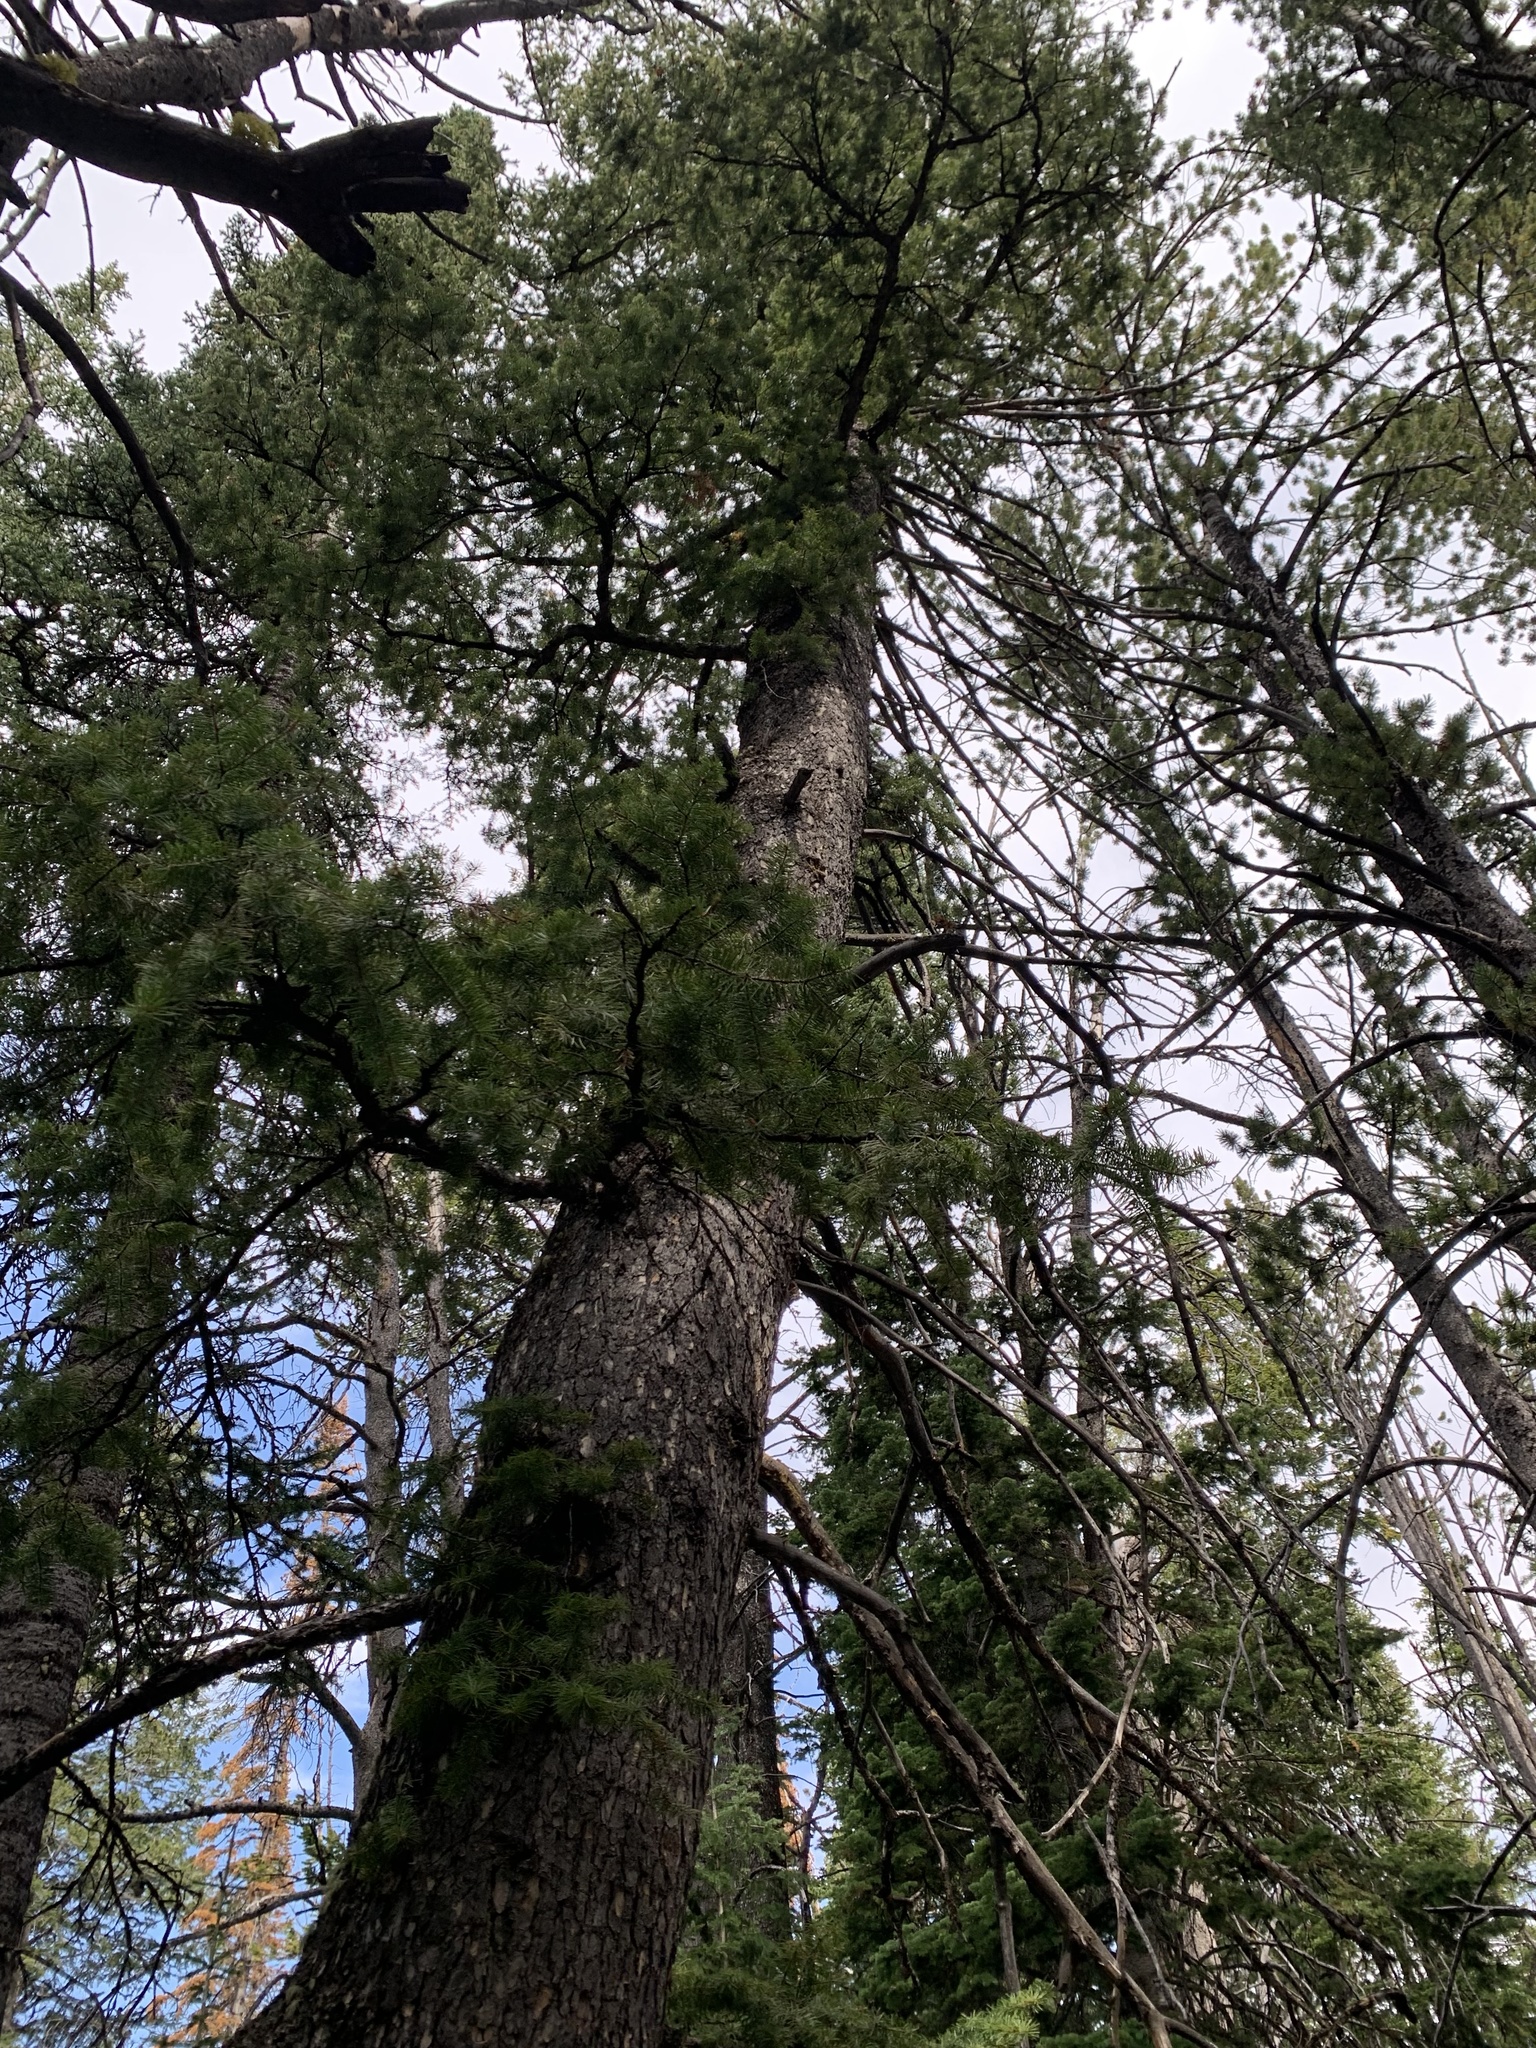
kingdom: Plantae
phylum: Tracheophyta
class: Pinopsida
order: Pinales
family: Pinaceae
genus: Pseudotsuga
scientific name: Pseudotsuga menziesii
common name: Douglas fir
